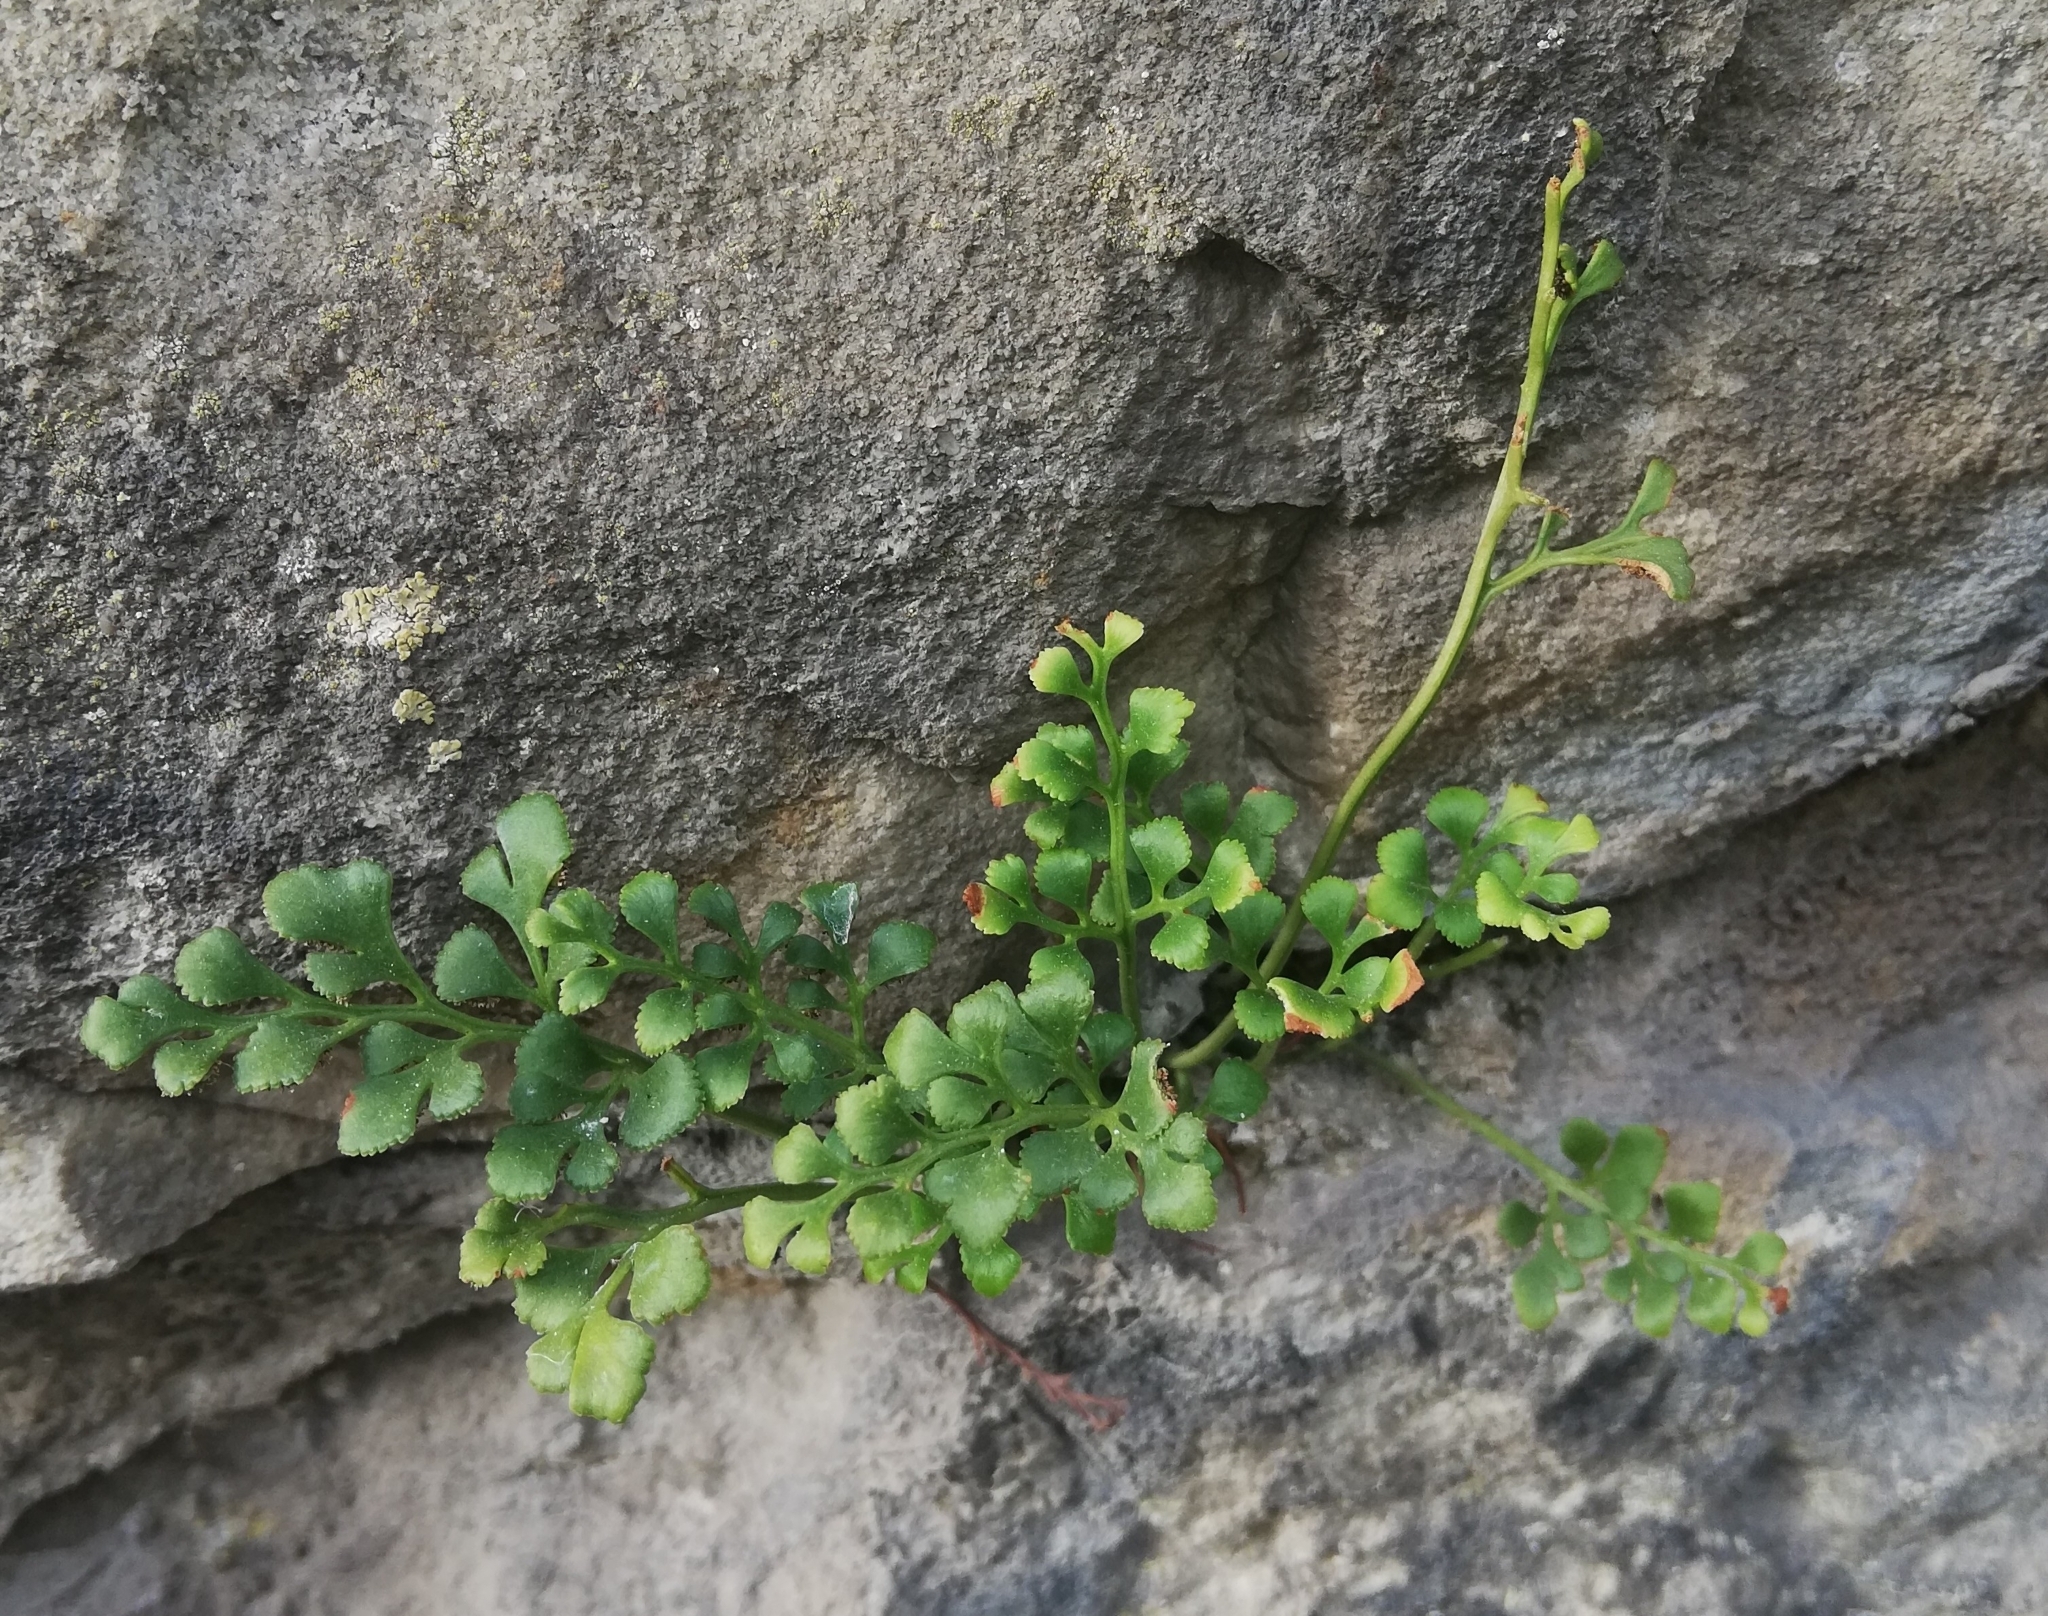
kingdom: Plantae
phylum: Tracheophyta
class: Polypodiopsida
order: Polypodiales
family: Aspleniaceae
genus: Asplenium
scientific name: Asplenium ruta-muraria
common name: Wall-rue
